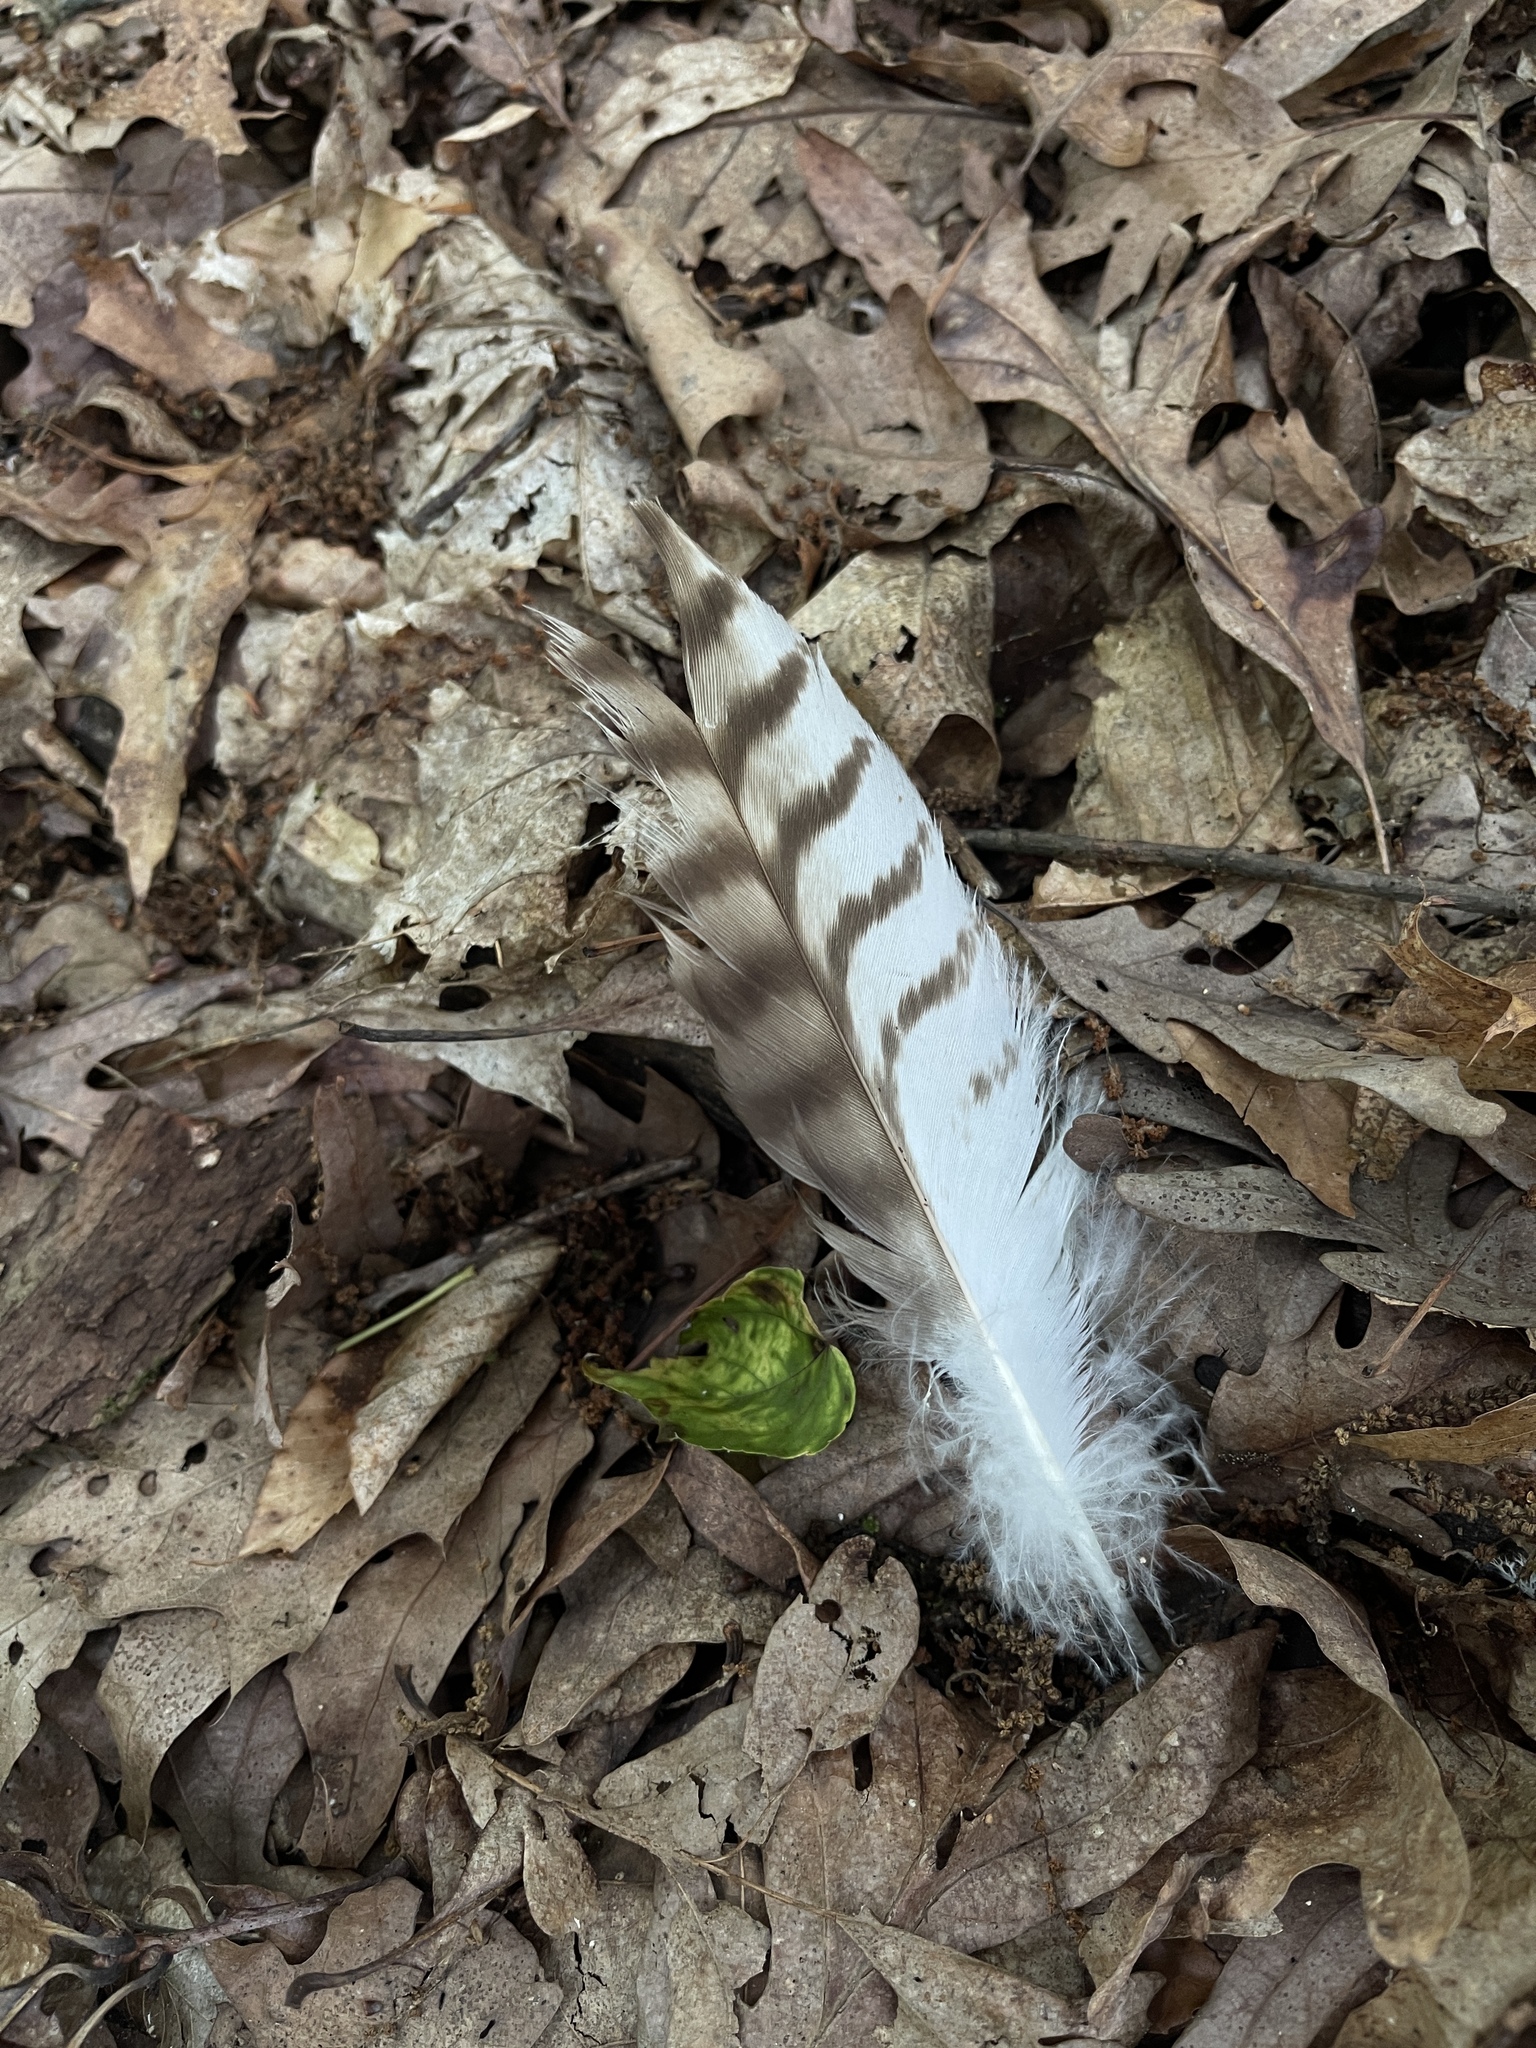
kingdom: Animalia
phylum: Chordata
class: Aves
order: Accipitriformes
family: Accipitridae
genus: Buteo
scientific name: Buteo jamaicensis
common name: Red-tailed hawk
